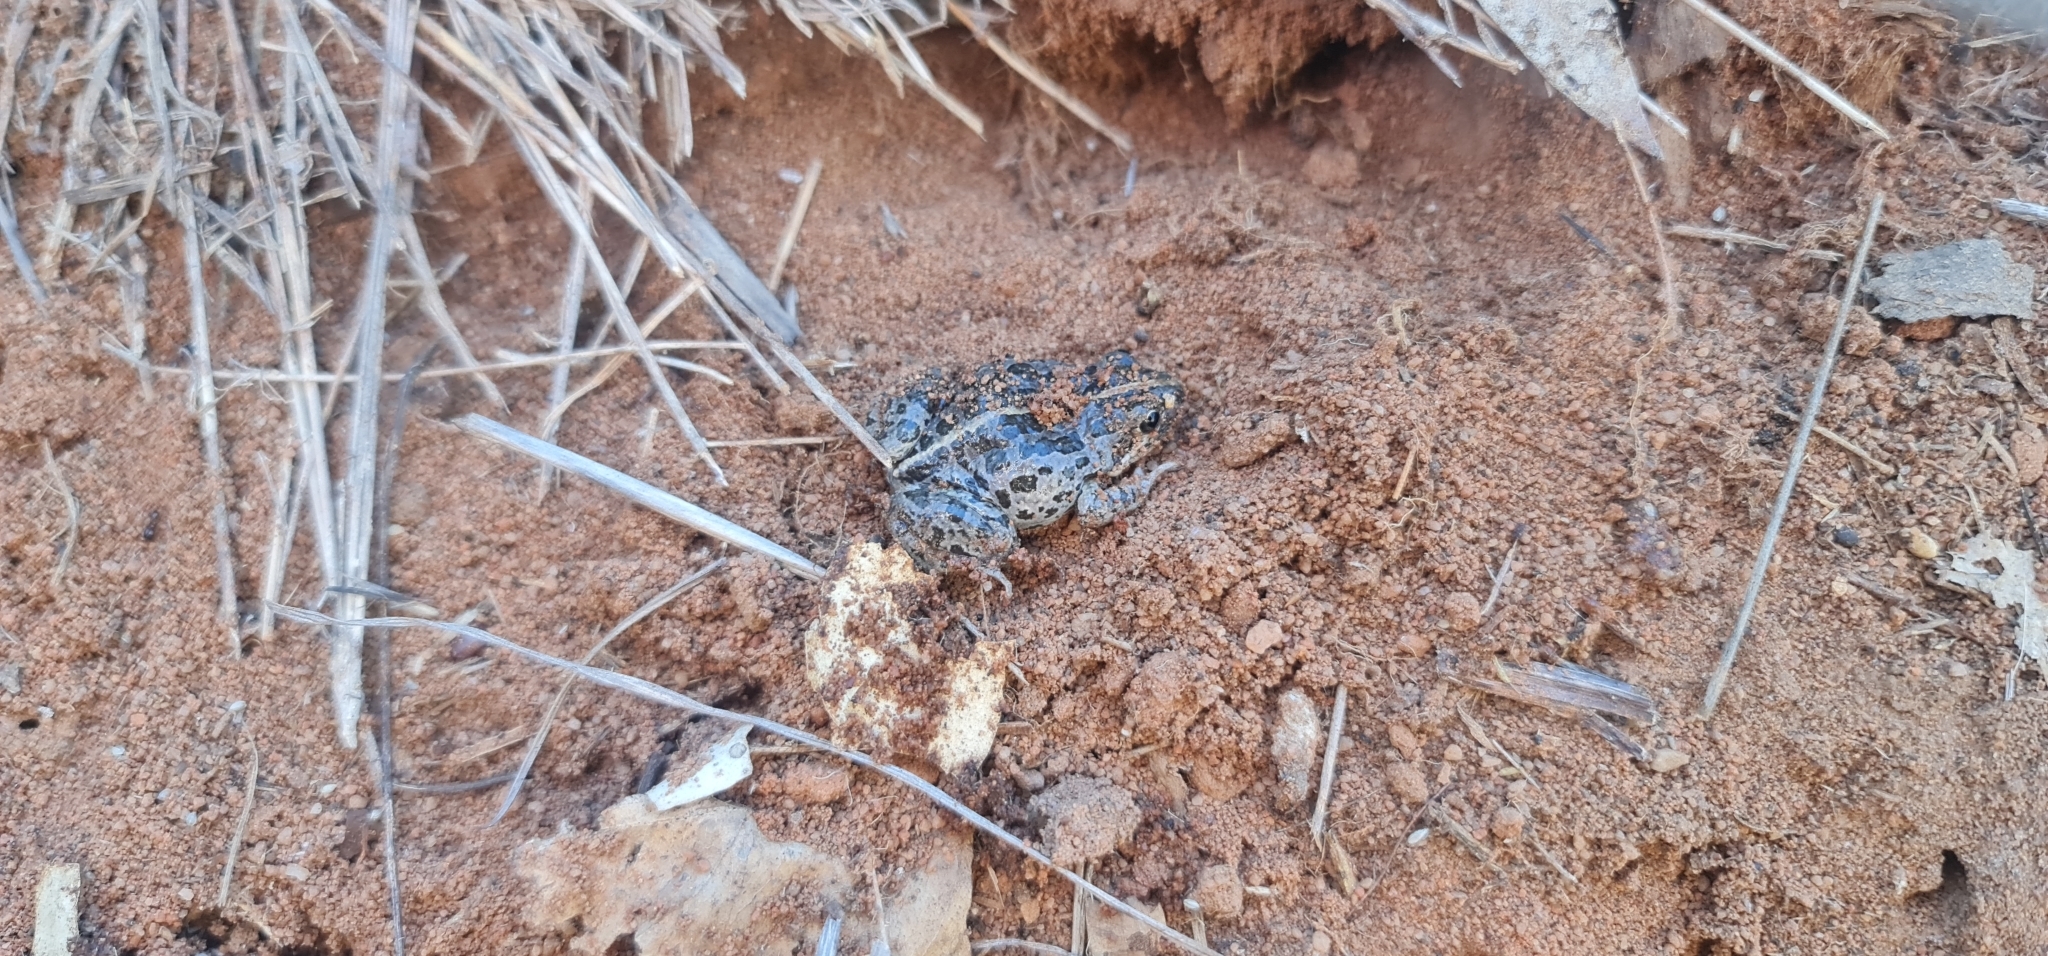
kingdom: Animalia
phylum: Chordata
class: Amphibia
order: Anura
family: Limnodynastidae
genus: Limnodynastes
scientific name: Limnodynastes tasmaniensis
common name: Spotted marsh frog
